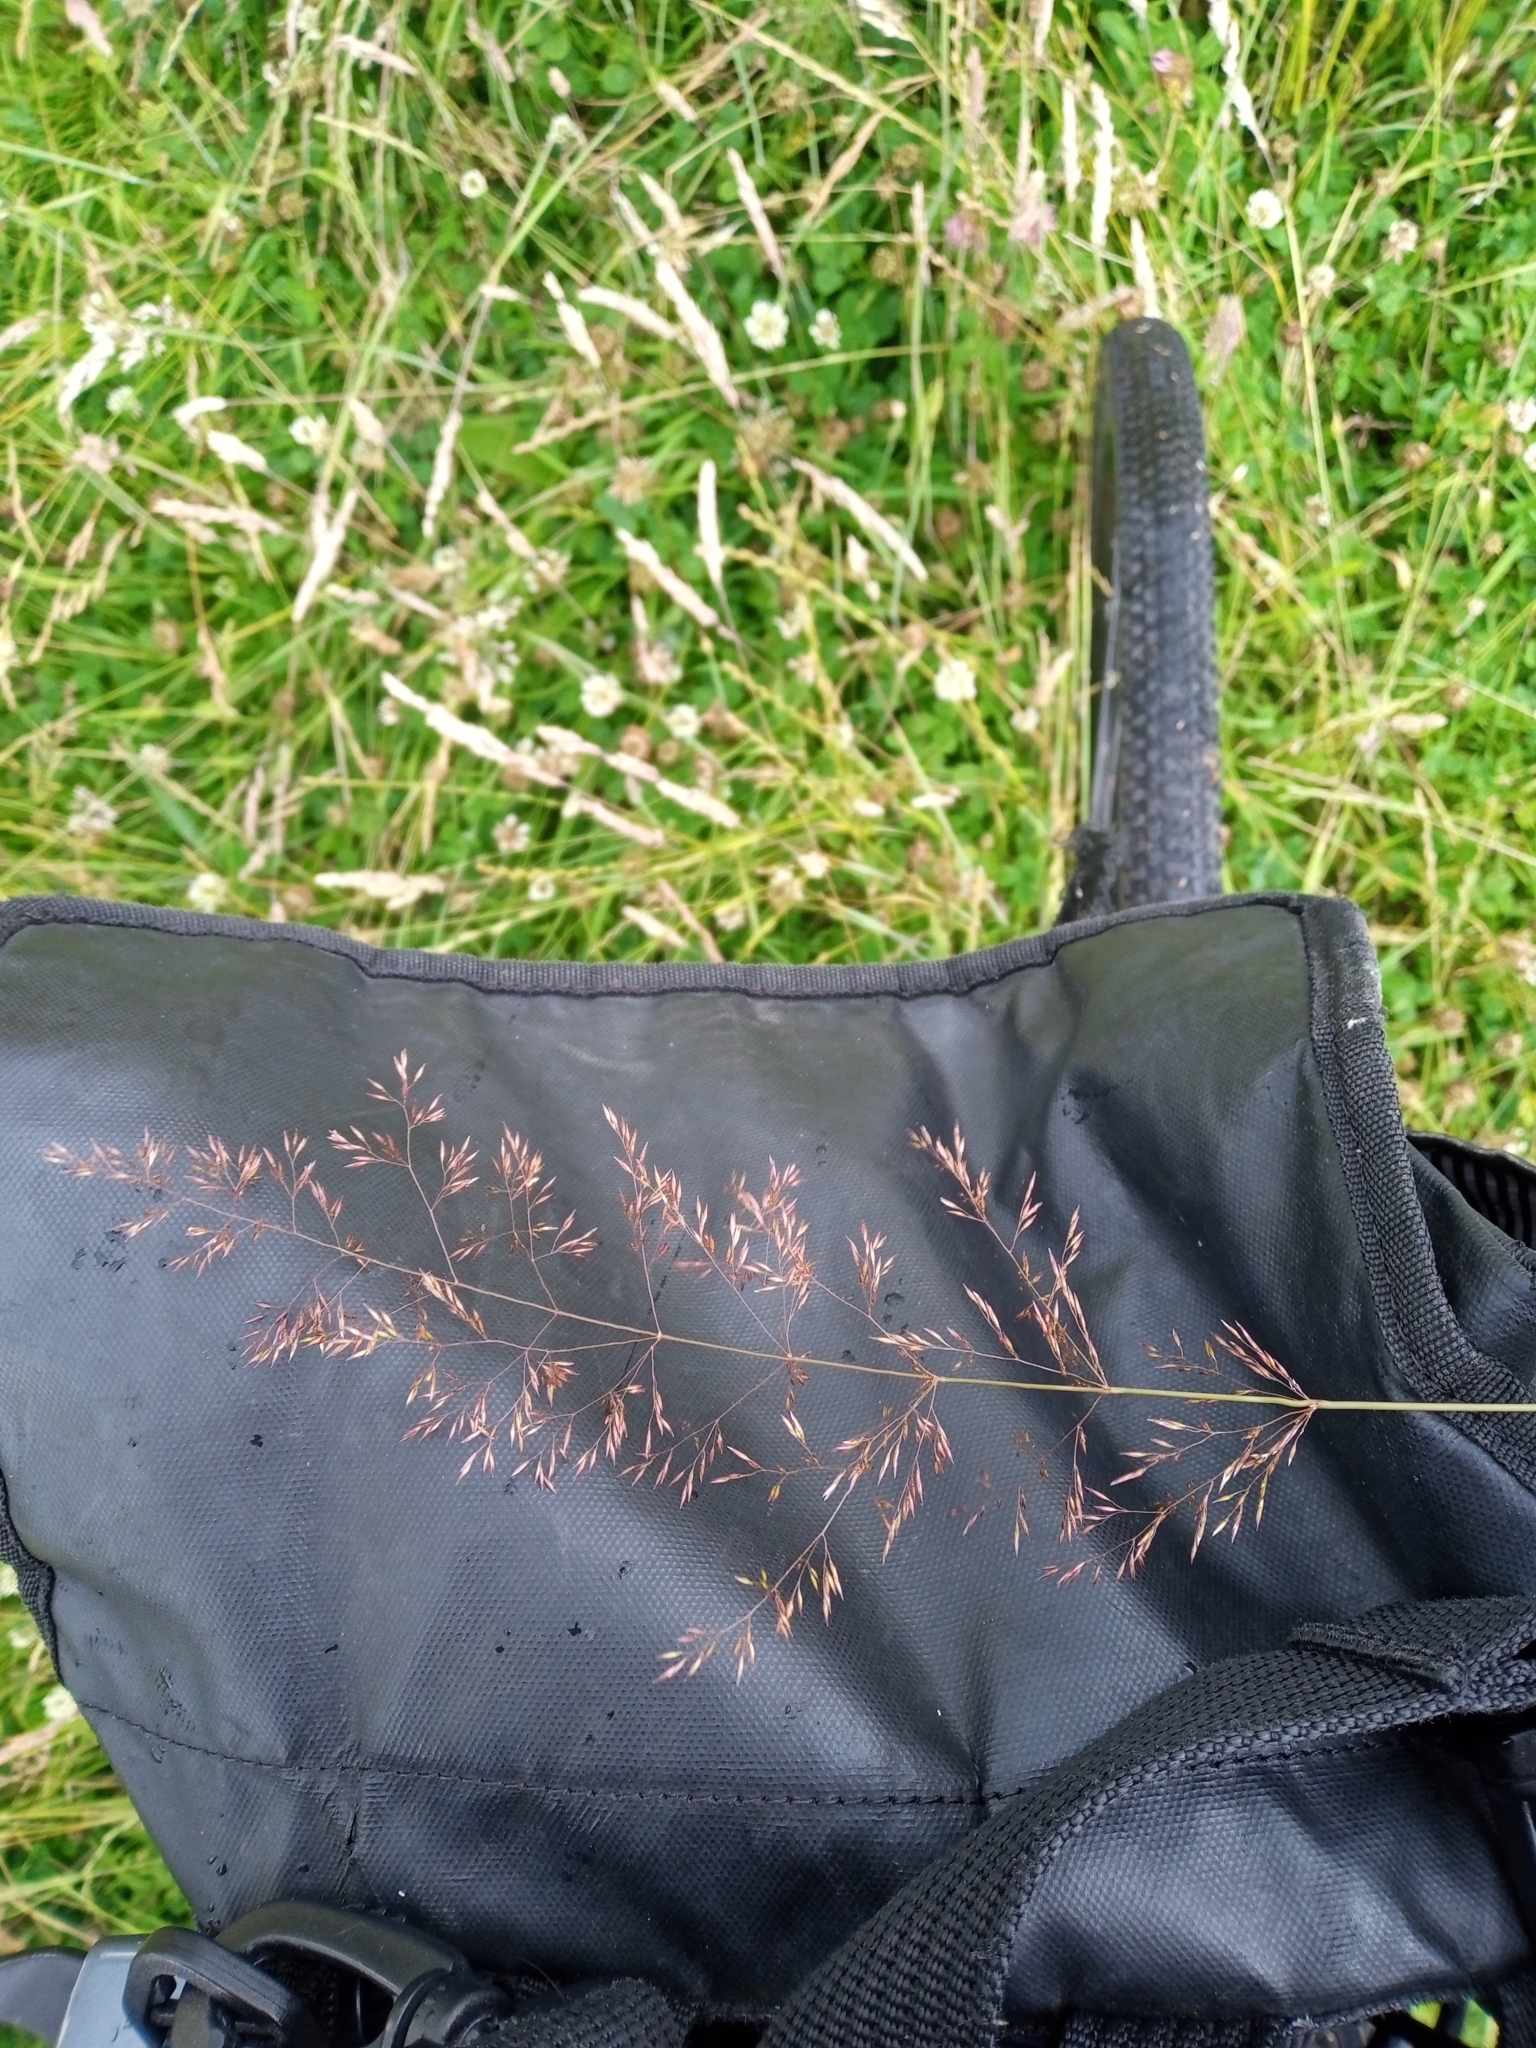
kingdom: Plantae
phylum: Tracheophyta
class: Liliopsida
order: Poales
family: Poaceae
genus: Agrostis
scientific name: Agrostis capillaris
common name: Colonial bentgrass
